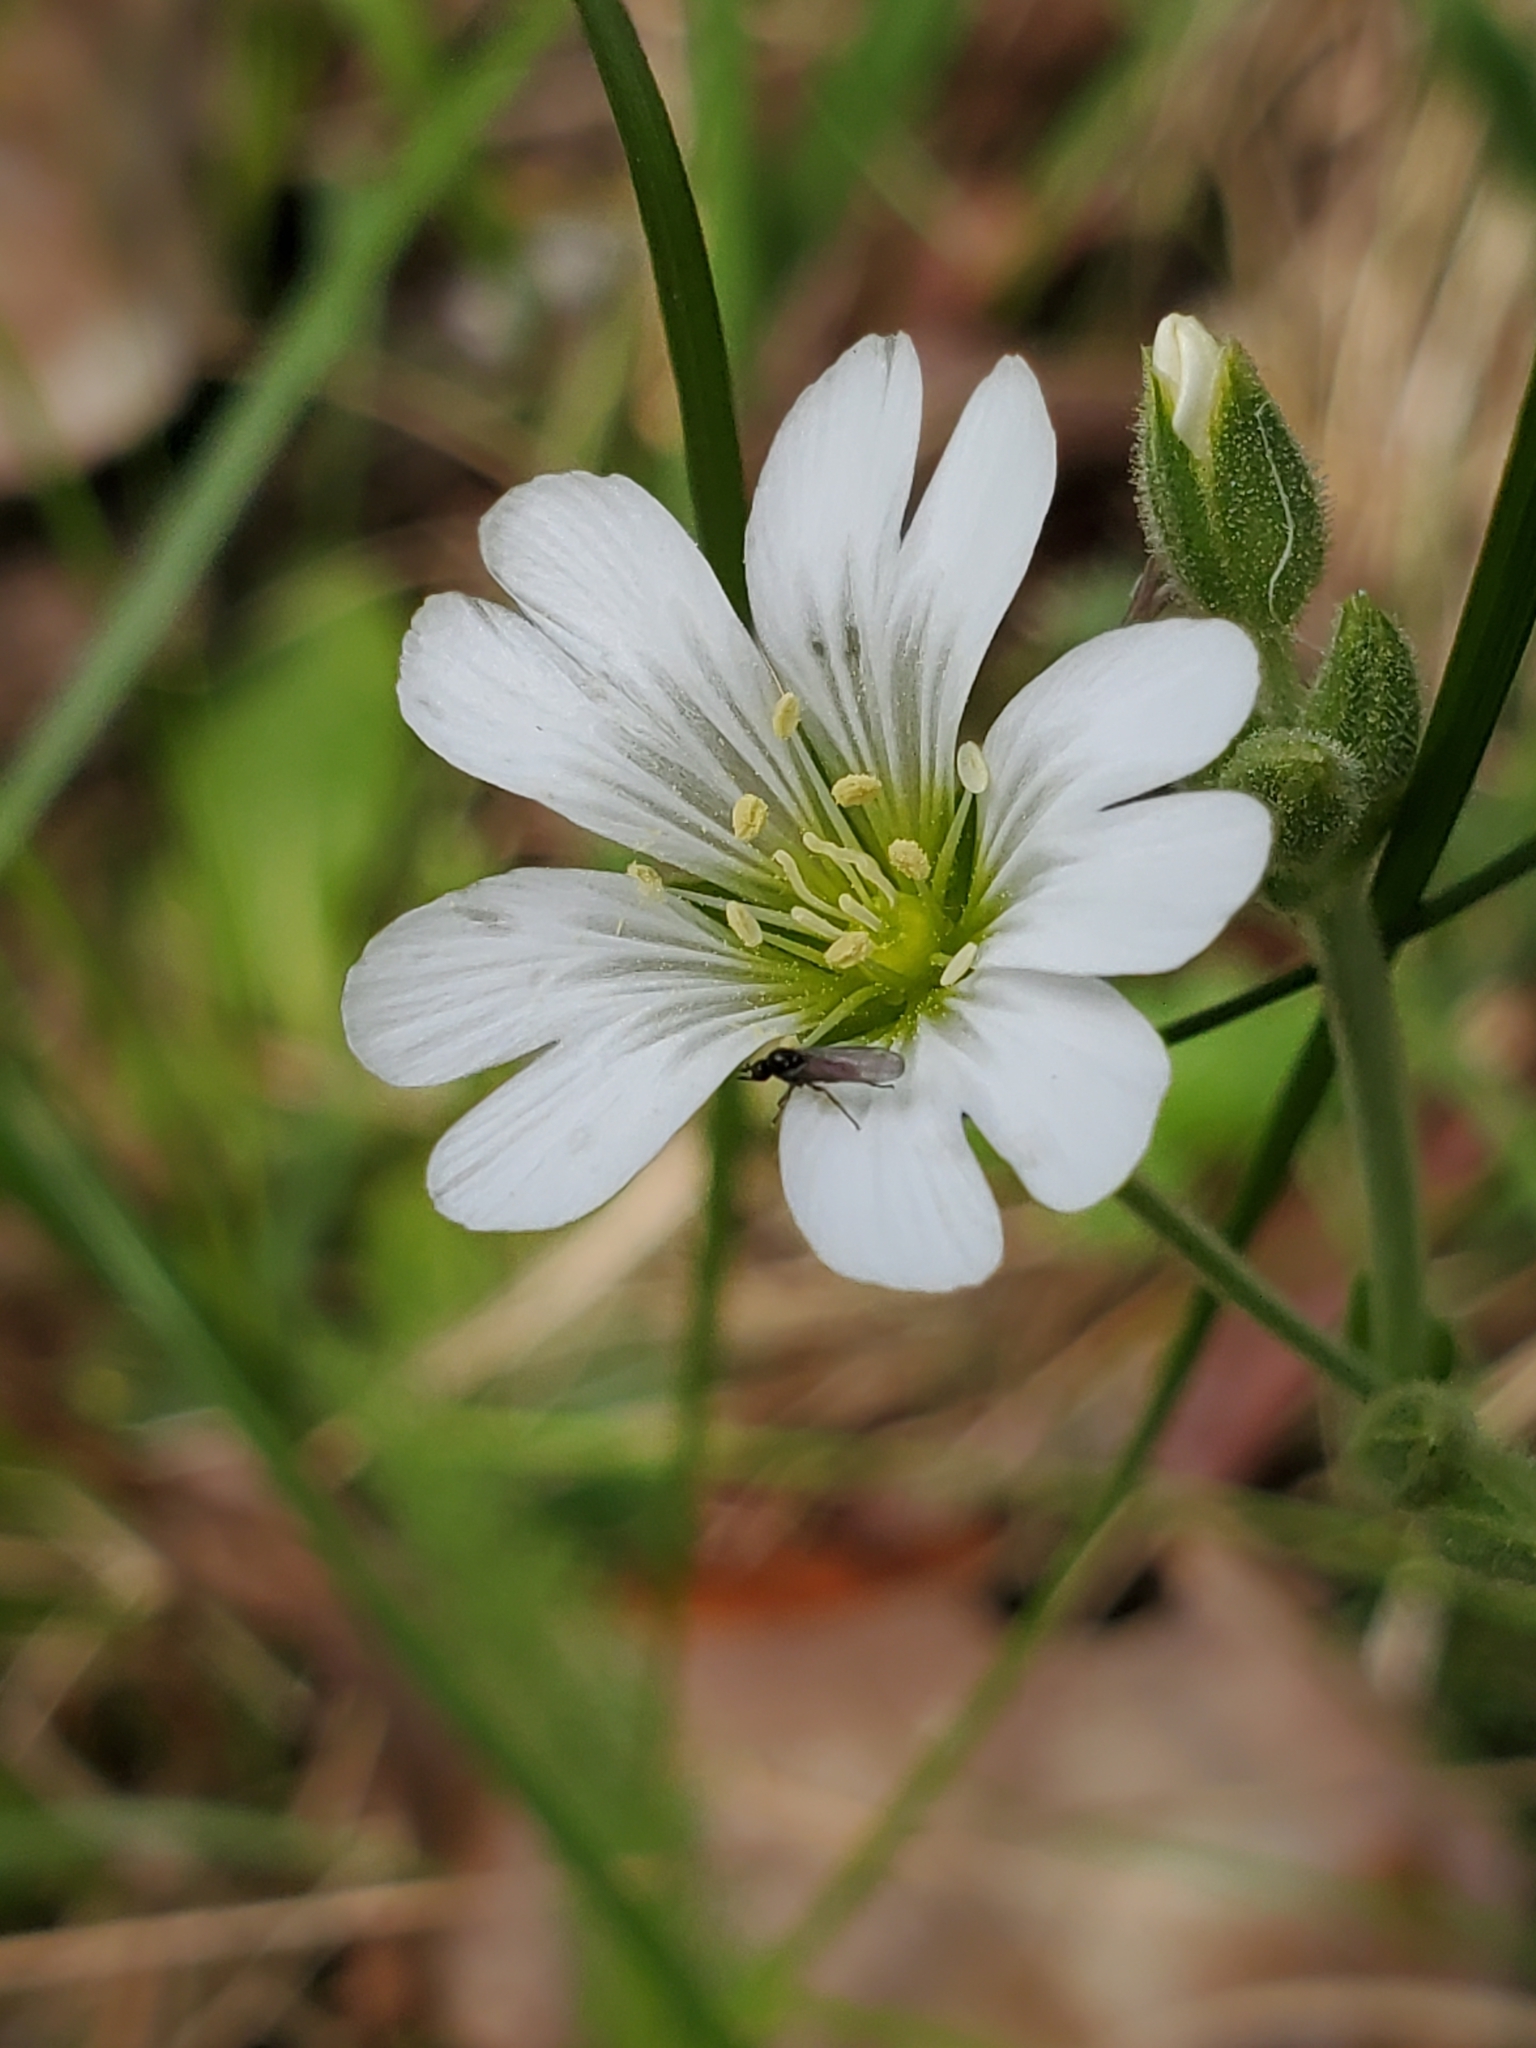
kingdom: Plantae
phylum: Tracheophyta
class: Magnoliopsida
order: Caryophyllales
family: Caryophyllaceae
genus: Cerastium
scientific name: Cerastium arvense
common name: Field mouse-ear
